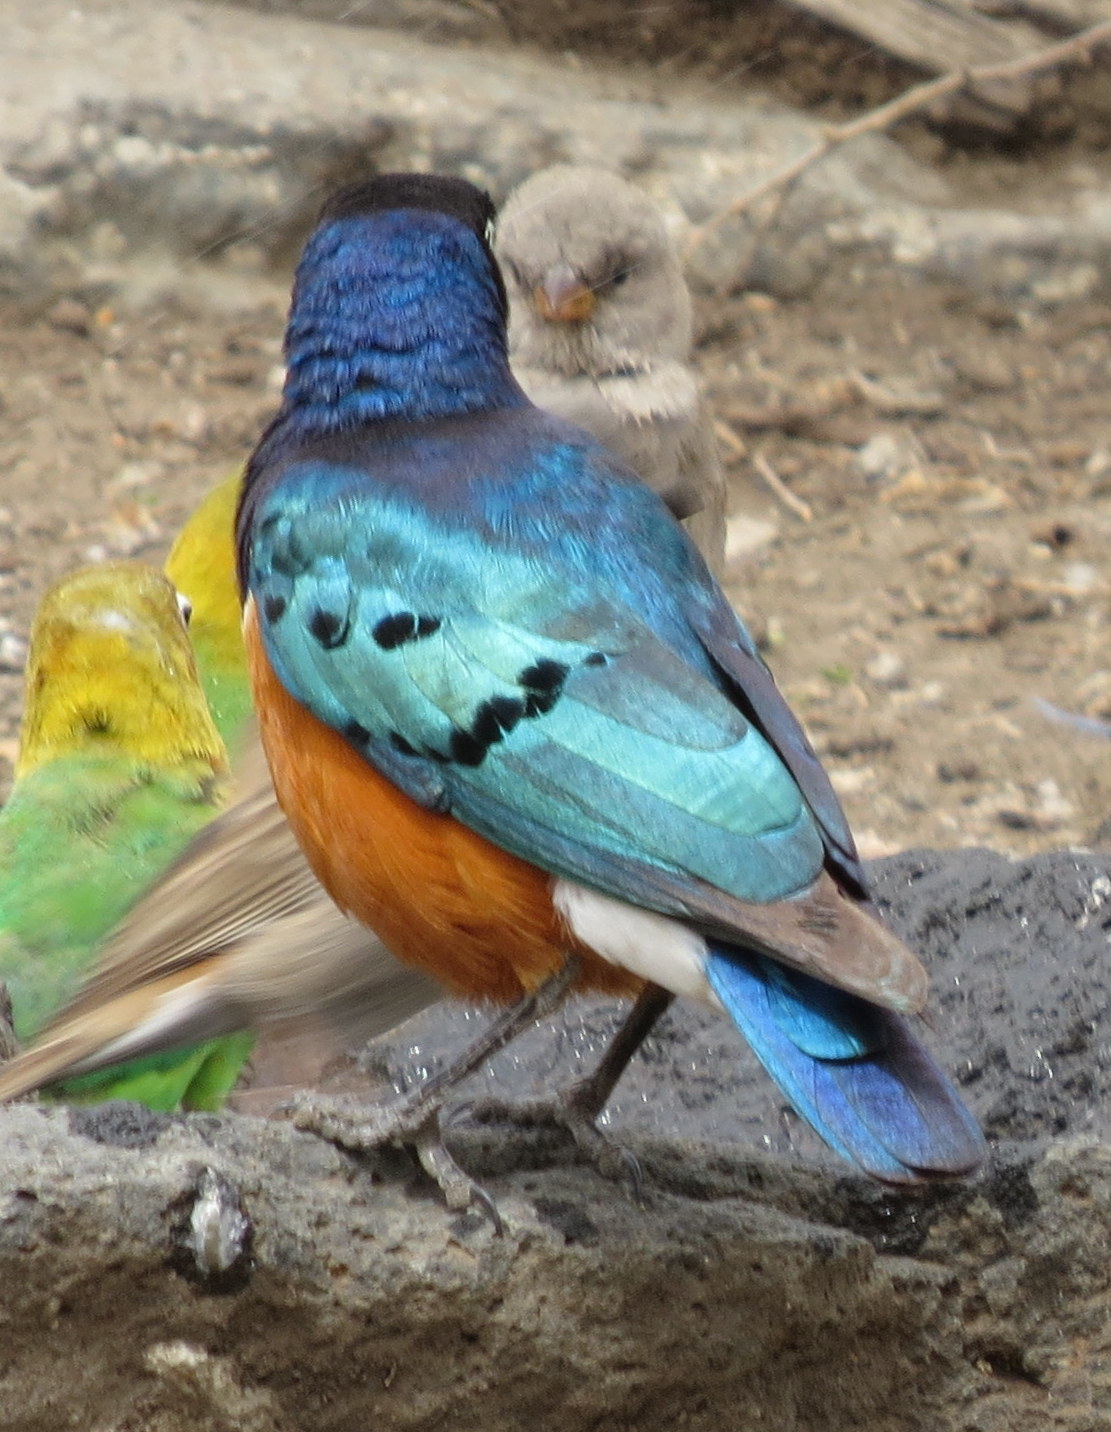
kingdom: Animalia
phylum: Chordata
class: Aves
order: Passeriformes
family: Sturnidae
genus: Lamprotornis
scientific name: Lamprotornis superbus
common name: Superb starling
